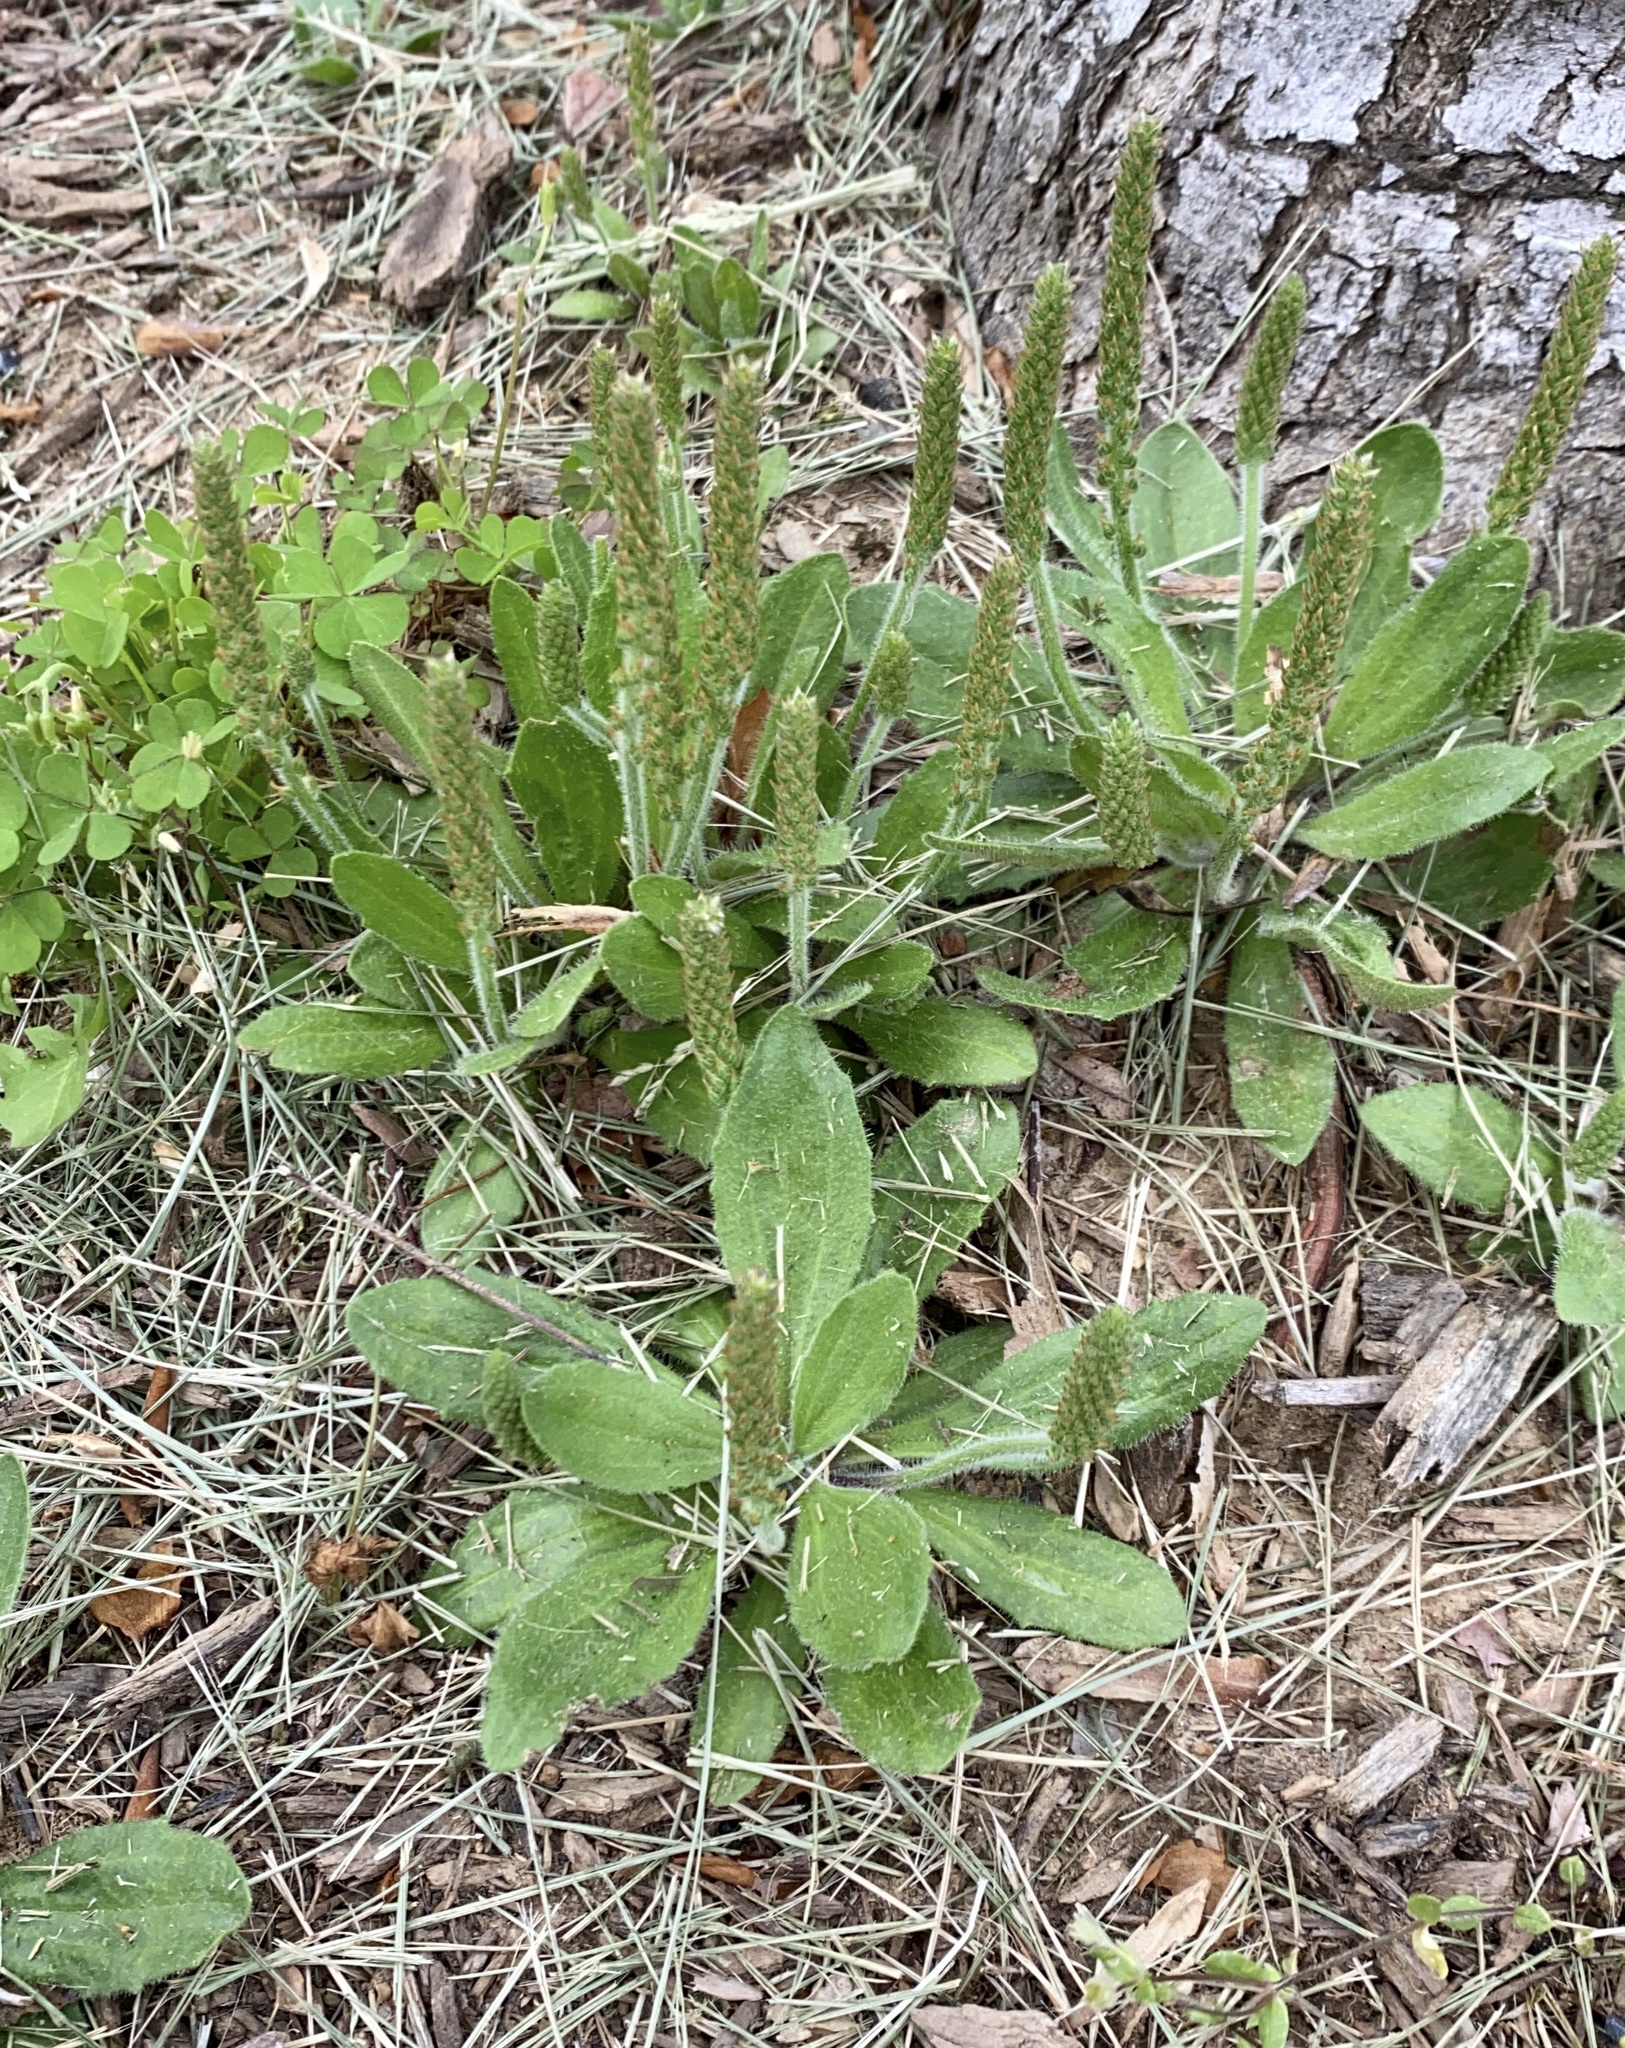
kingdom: Plantae
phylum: Tracheophyta
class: Magnoliopsida
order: Lamiales
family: Plantaginaceae
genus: Plantago
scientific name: Plantago virginica
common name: Hoary plantain
